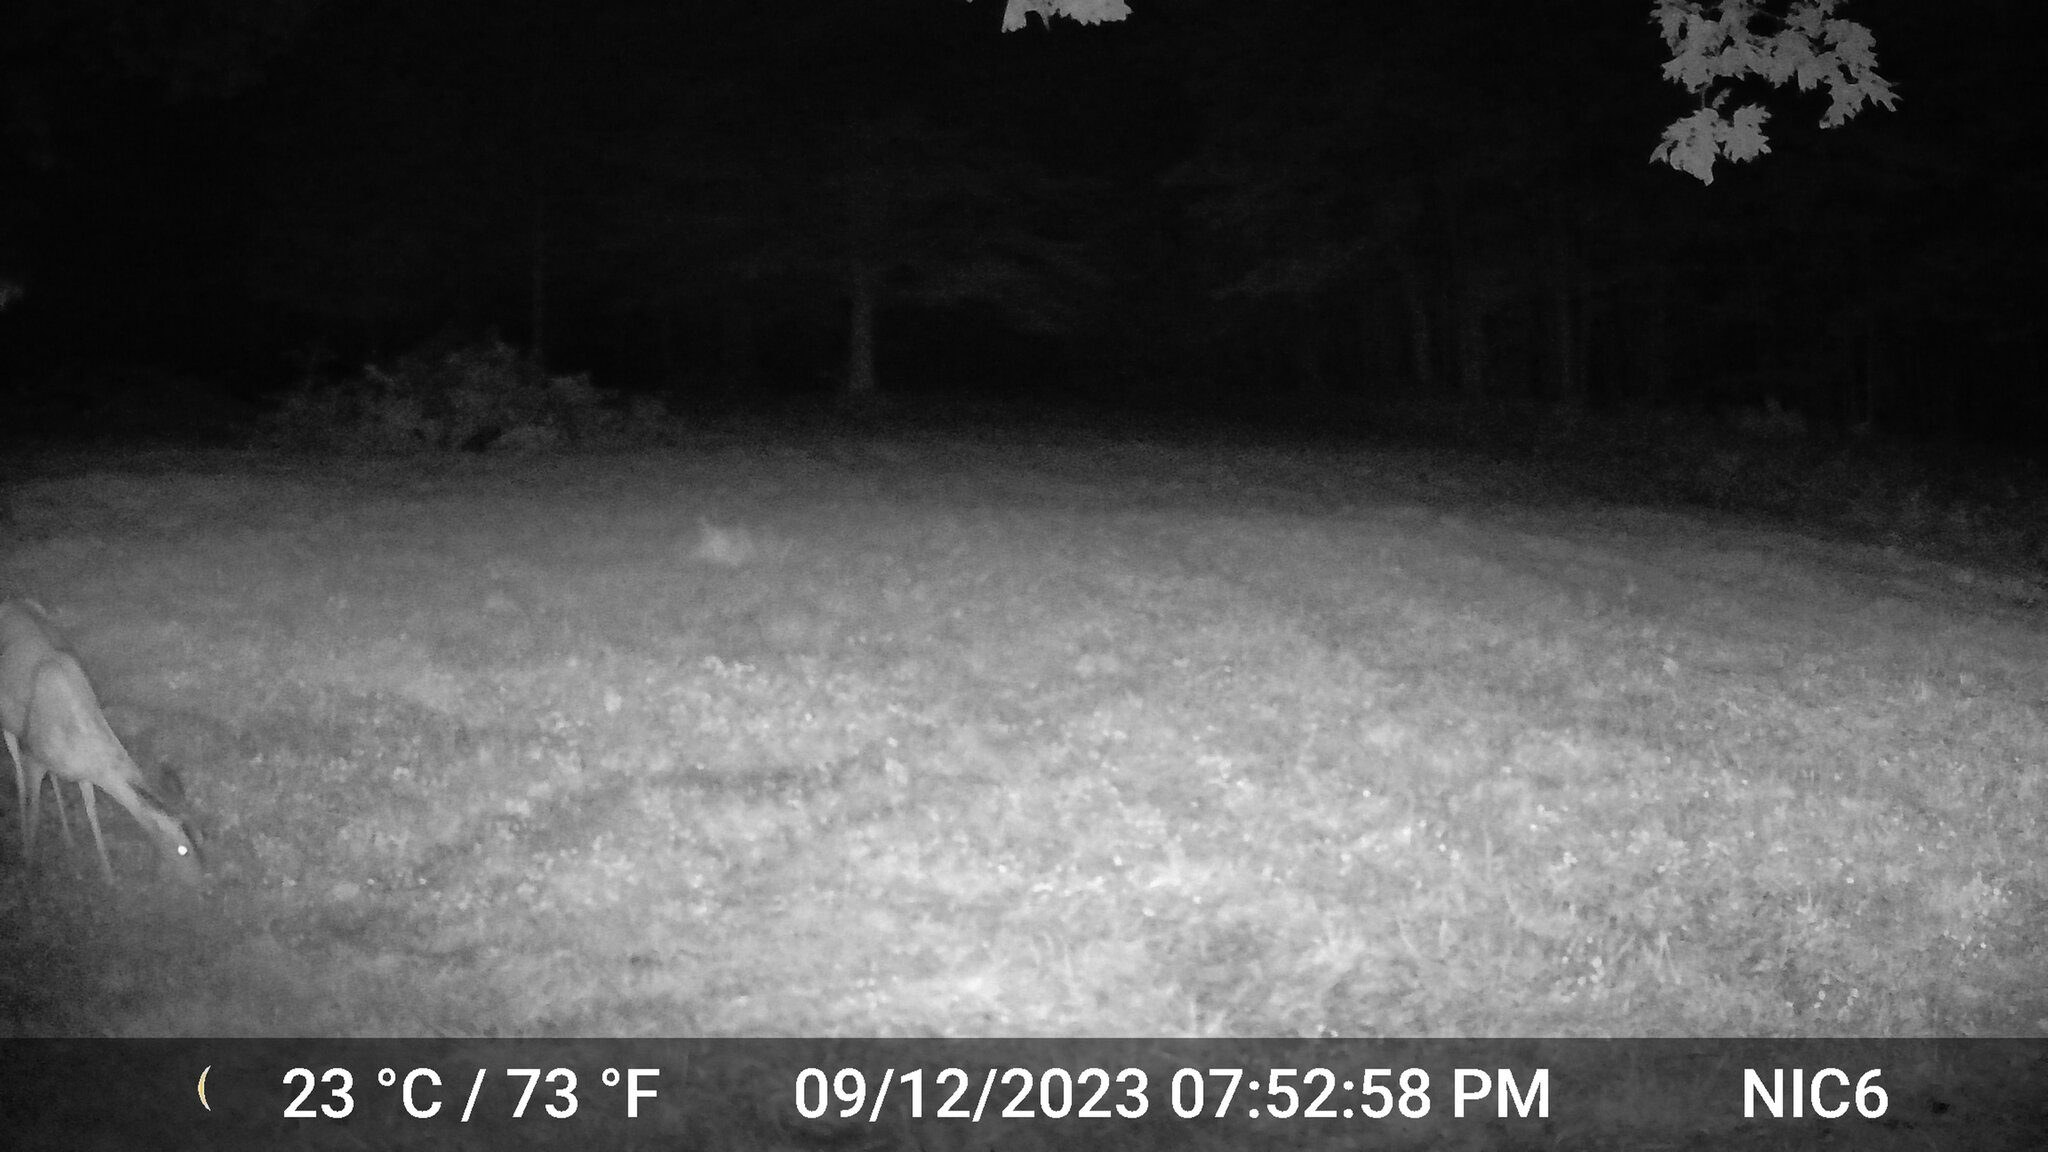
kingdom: Animalia
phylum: Chordata
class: Mammalia
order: Artiodactyla
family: Cervidae
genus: Odocoileus
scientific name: Odocoileus virginianus
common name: White-tailed deer
